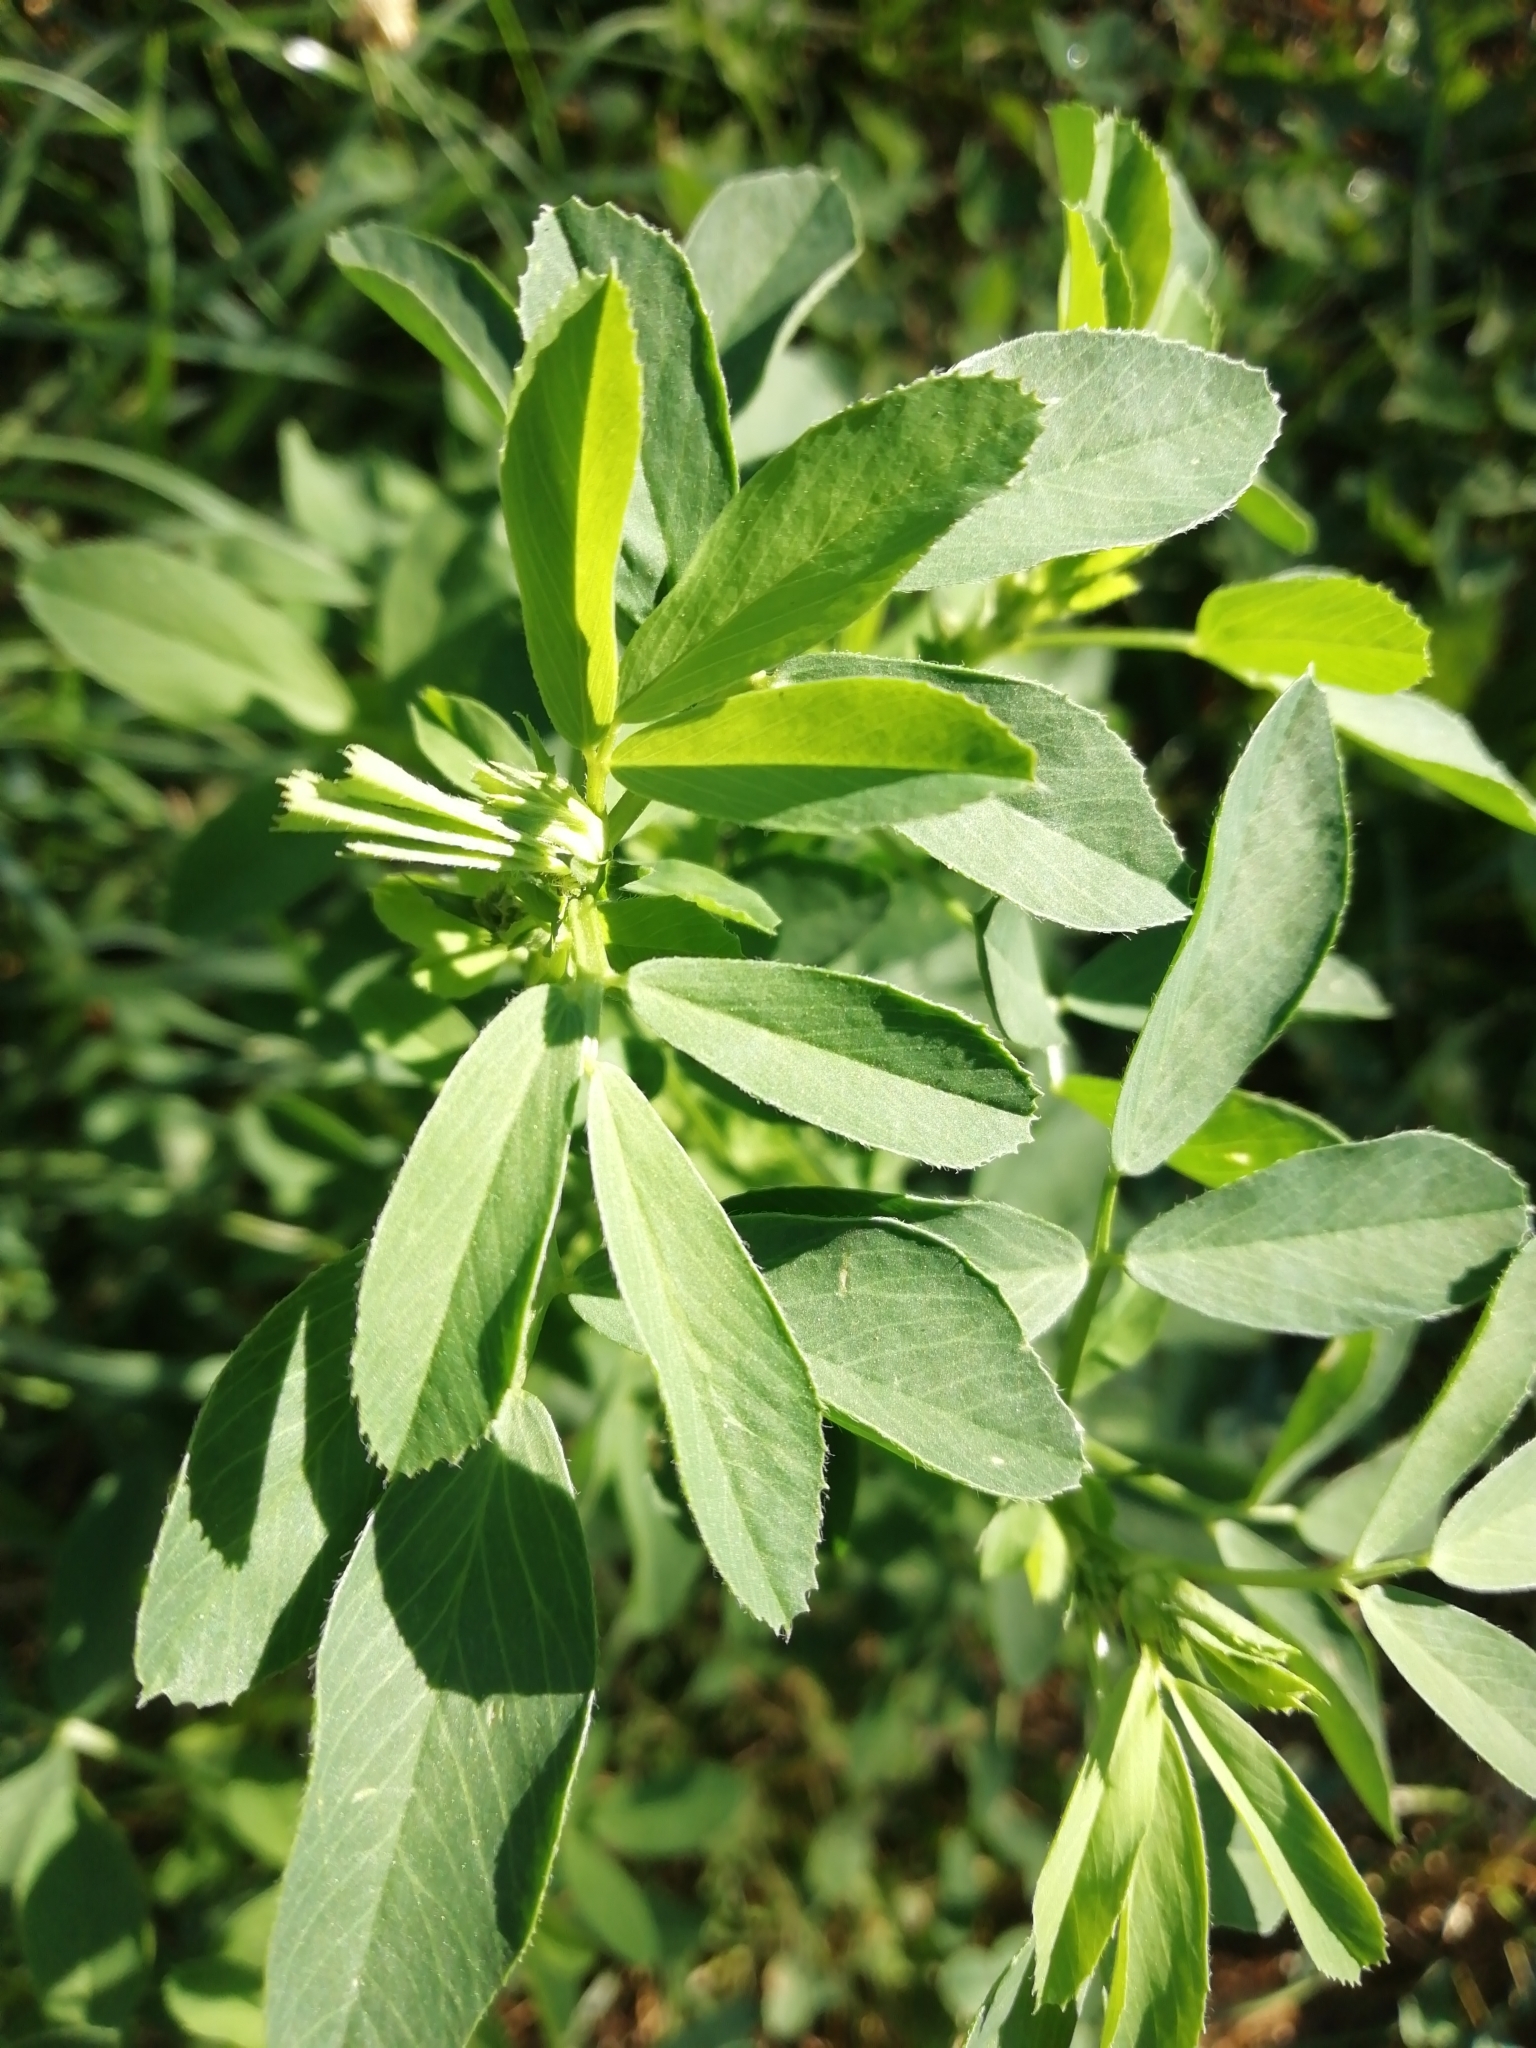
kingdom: Plantae
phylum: Tracheophyta
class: Magnoliopsida
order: Fabales
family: Fabaceae
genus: Melilotus
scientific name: Melilotus officinalis
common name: Sweetclover
